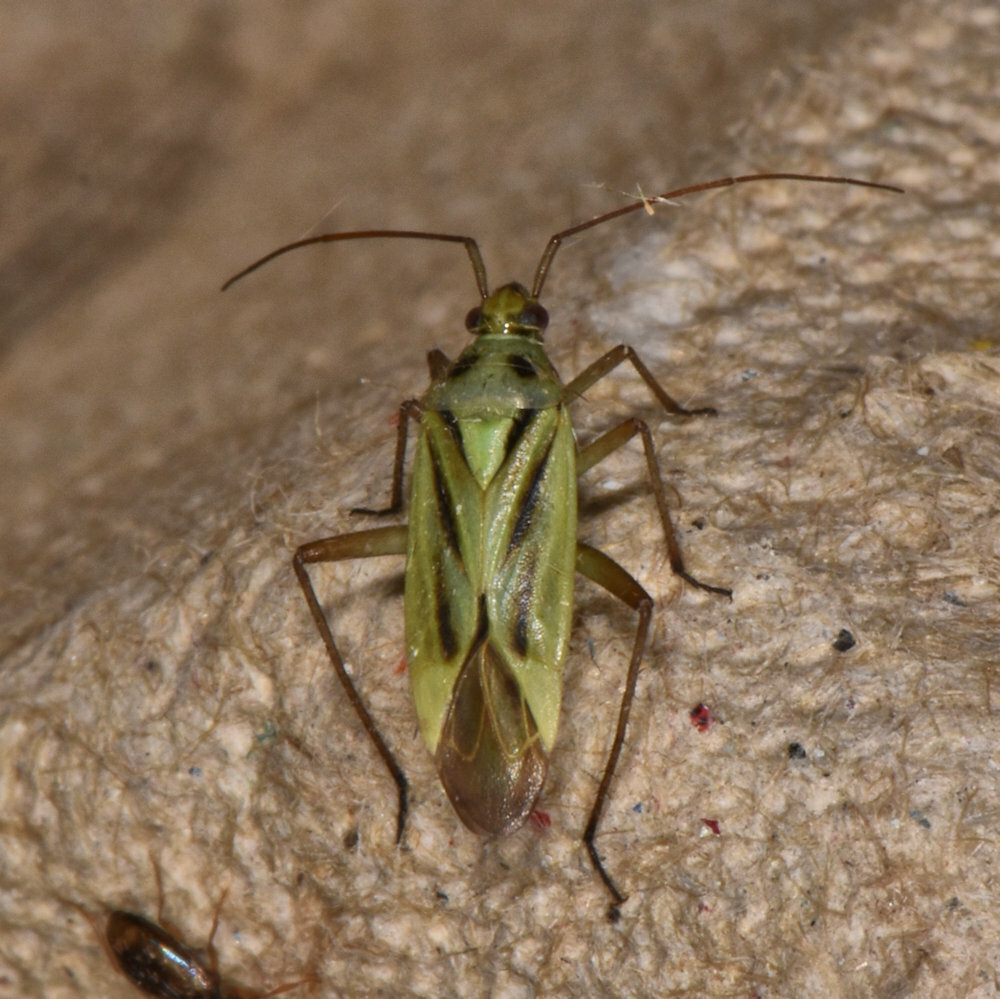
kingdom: Animalia
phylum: Arthropoda
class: Insecta
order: Hemiptera
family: Miridae
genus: Stenotus
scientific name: Stenotus binotatus
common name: Plant bug
